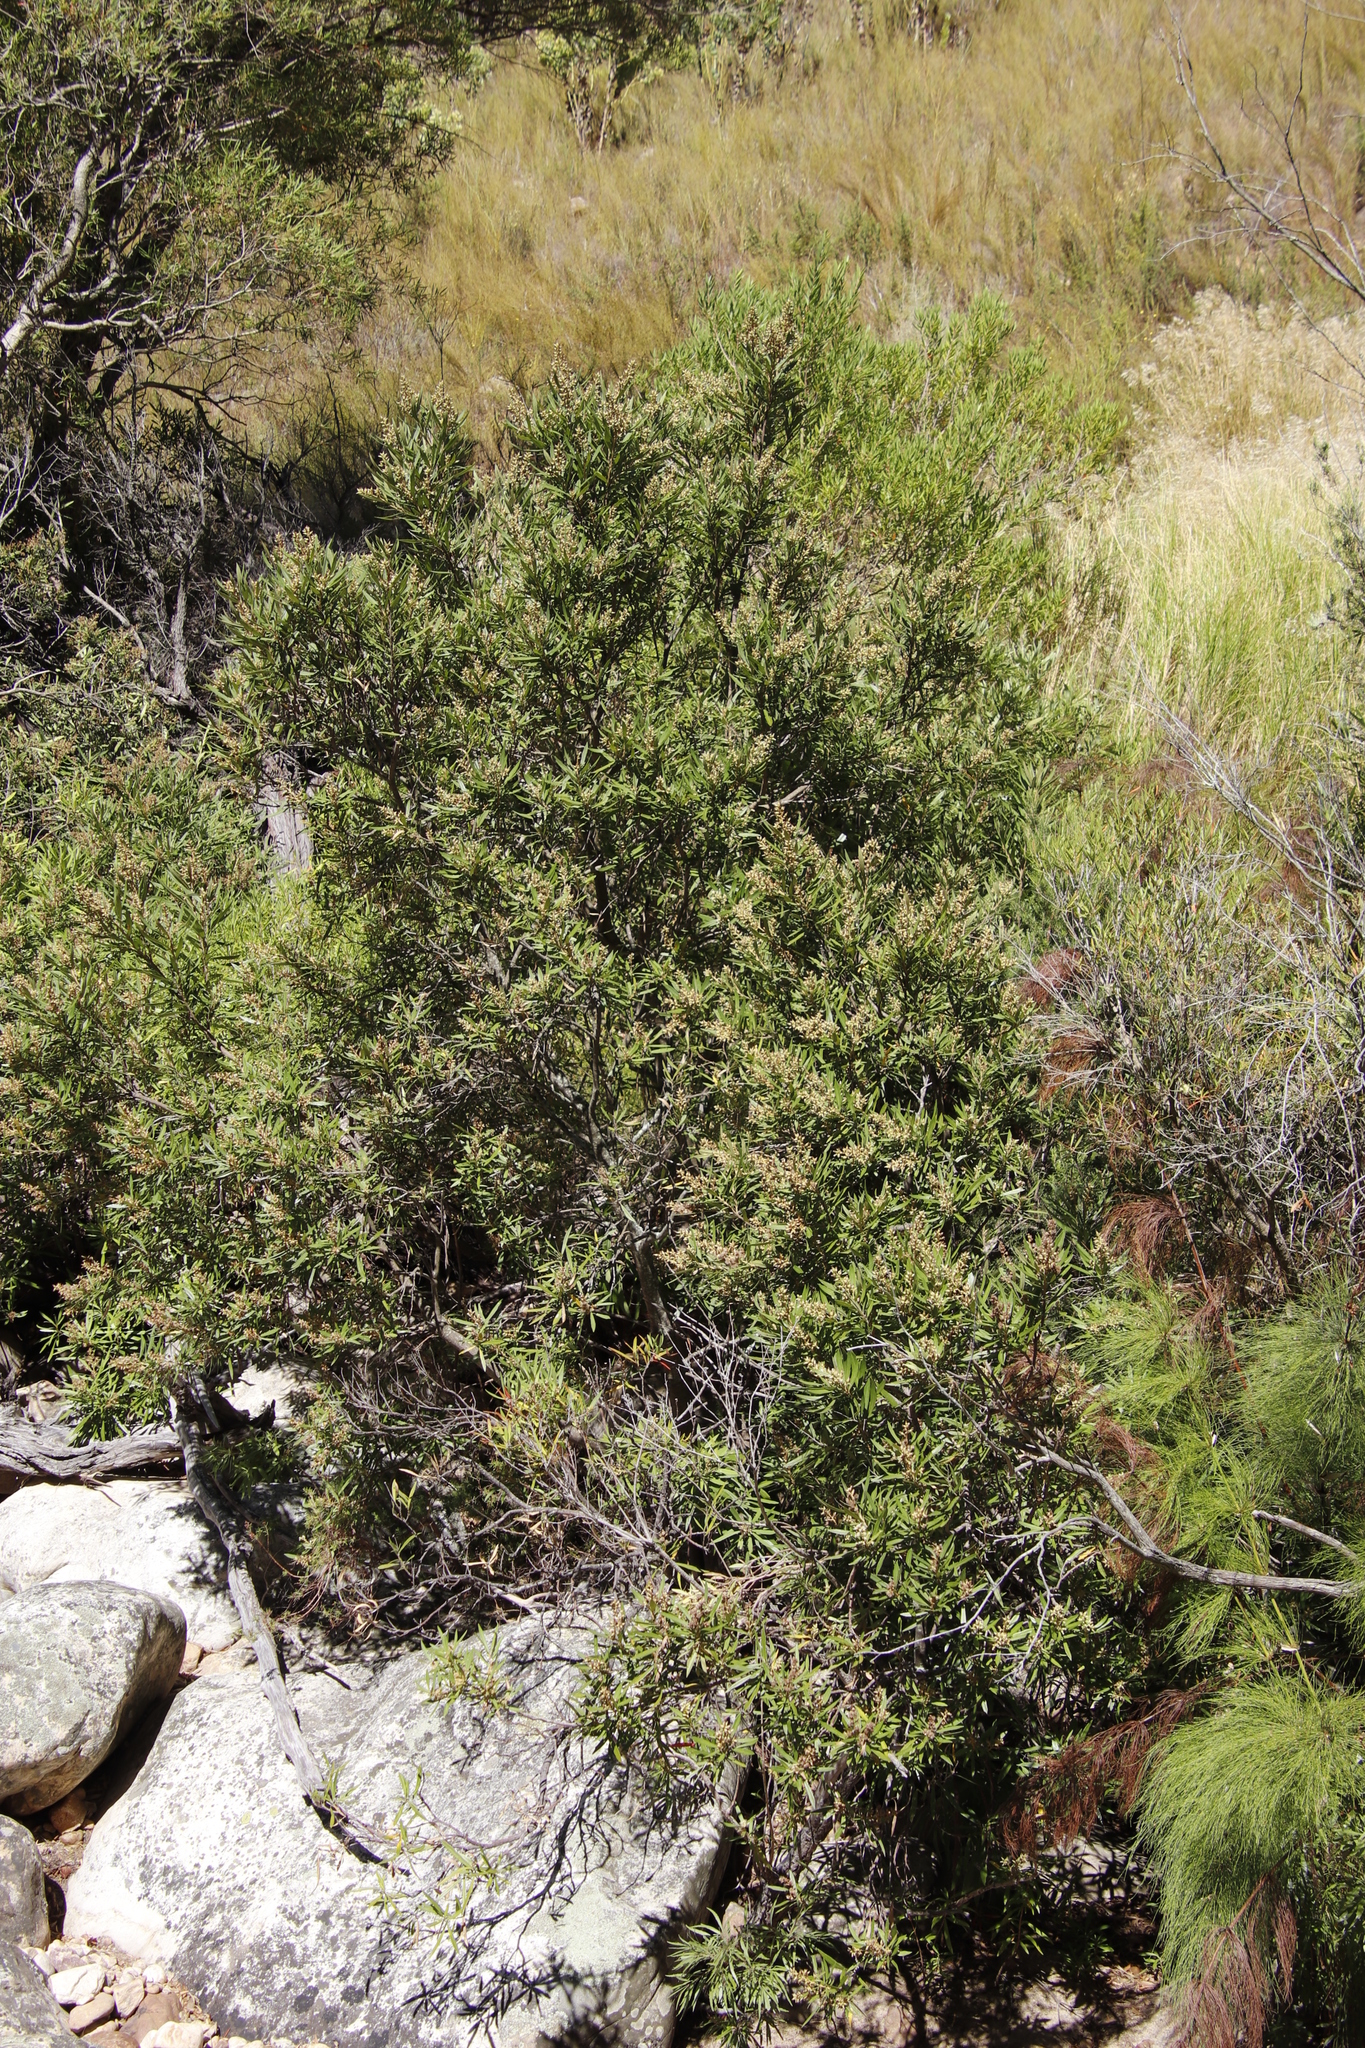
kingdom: Plantae
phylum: Tracheophyta
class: Magnoliopsida
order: Asterales
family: Asteraceae
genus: Brachylaena
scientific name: Brachylaena neriifolia
